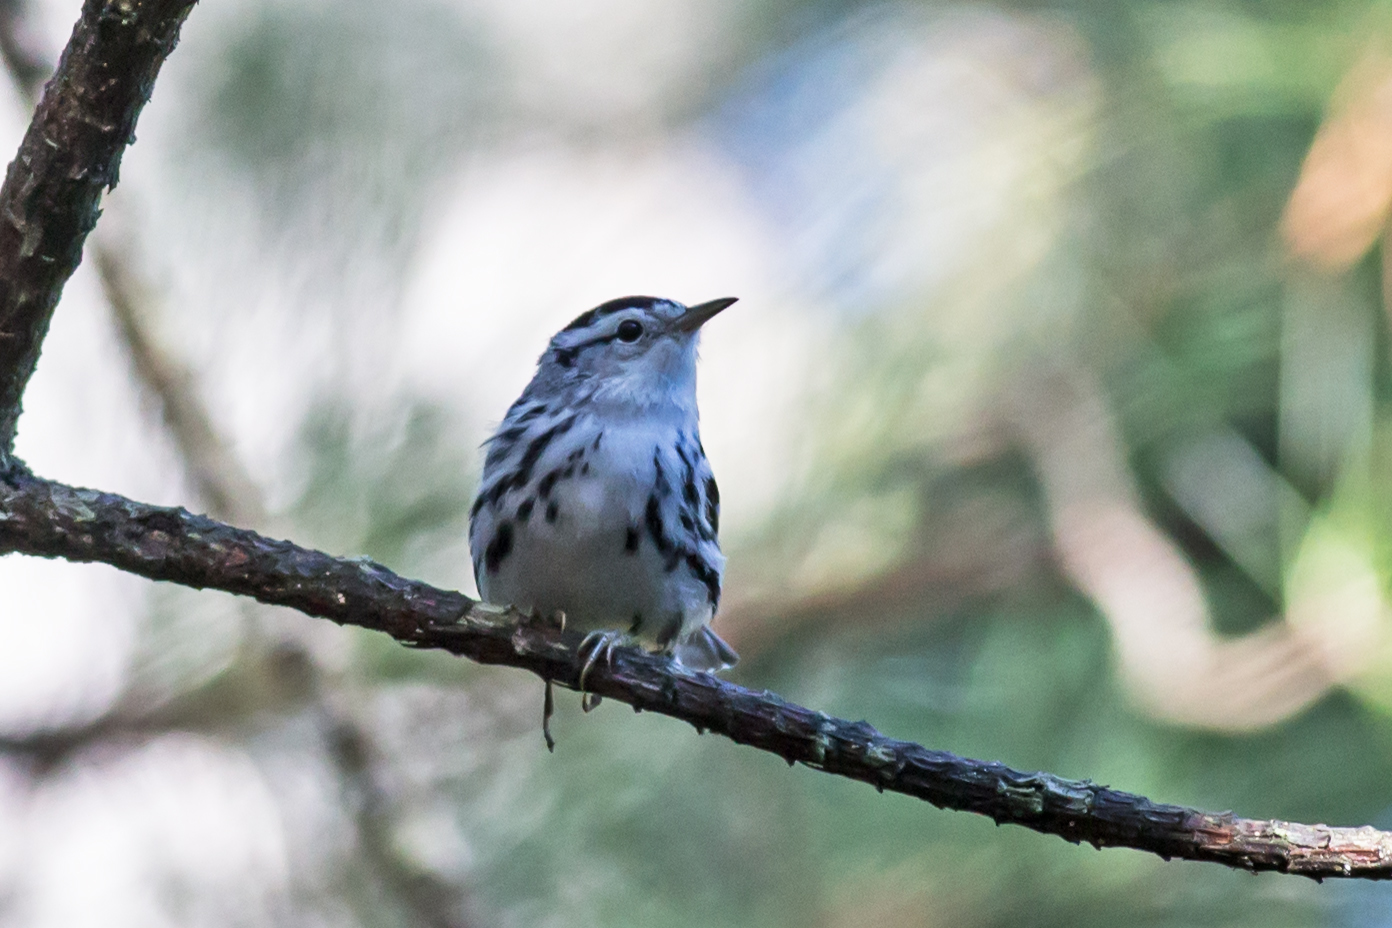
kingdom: Animalia
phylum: Chordata
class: Aves
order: Passeriformes
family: Parulidae
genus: Mniotilta
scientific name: Mniotilta varia
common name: Black-and-white warbler
